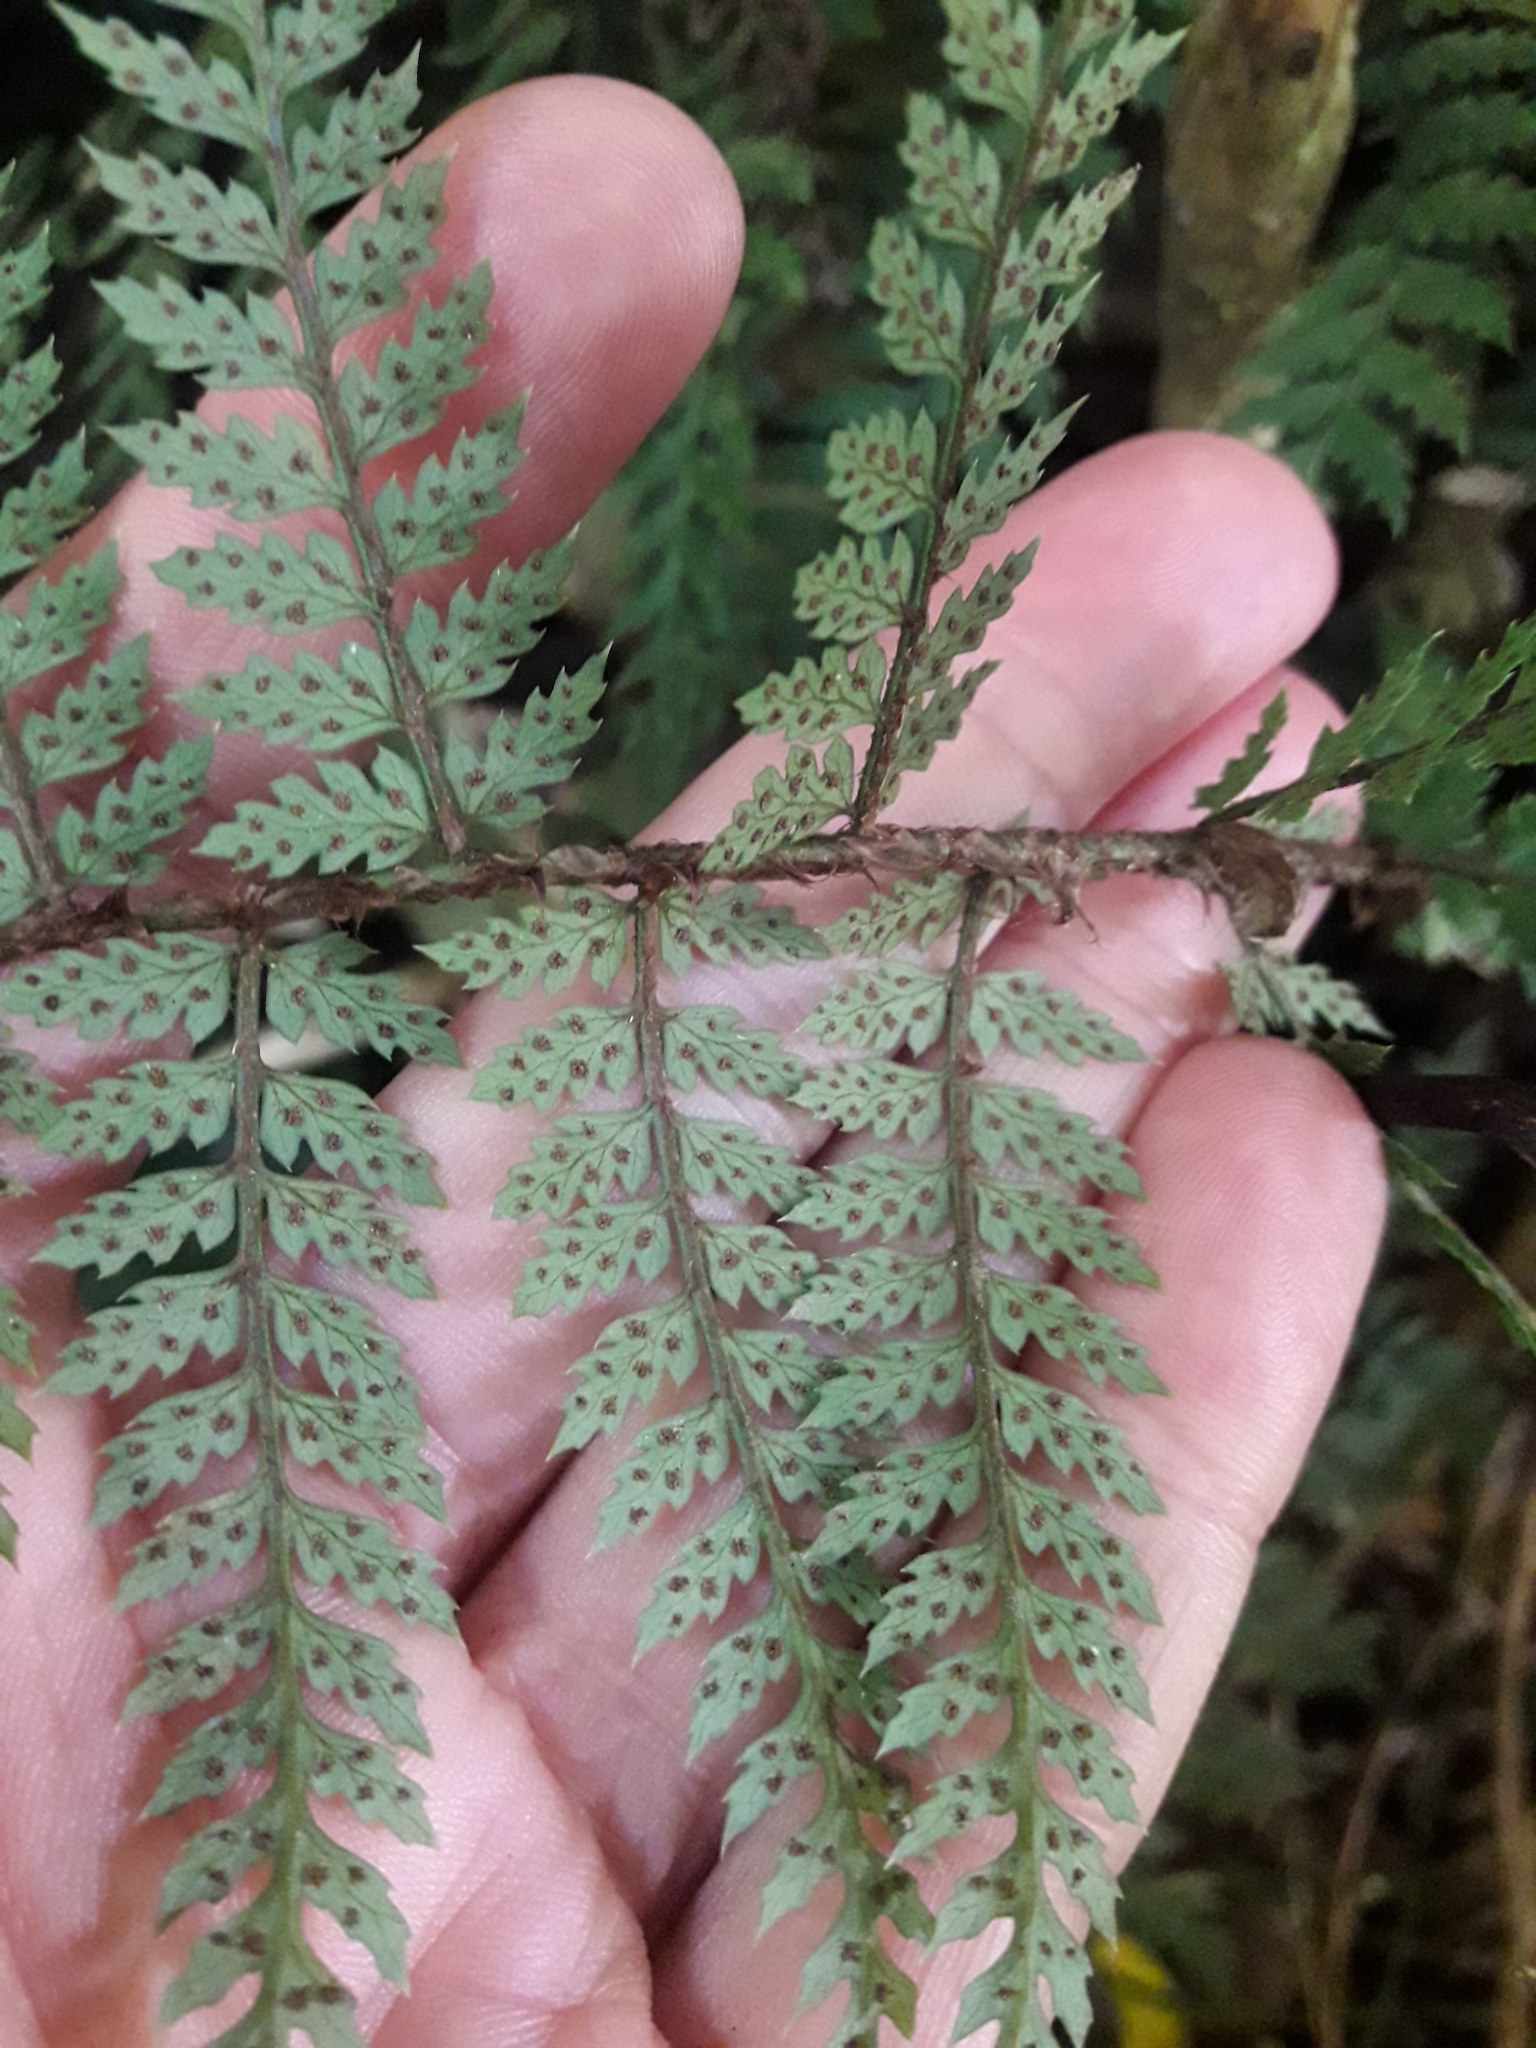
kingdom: Plantae
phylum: Tracheophyta
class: Polypodiopsida
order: Polypodiales
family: Dryopteridaceae
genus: Polystichum
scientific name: Polystichum silvaticum
